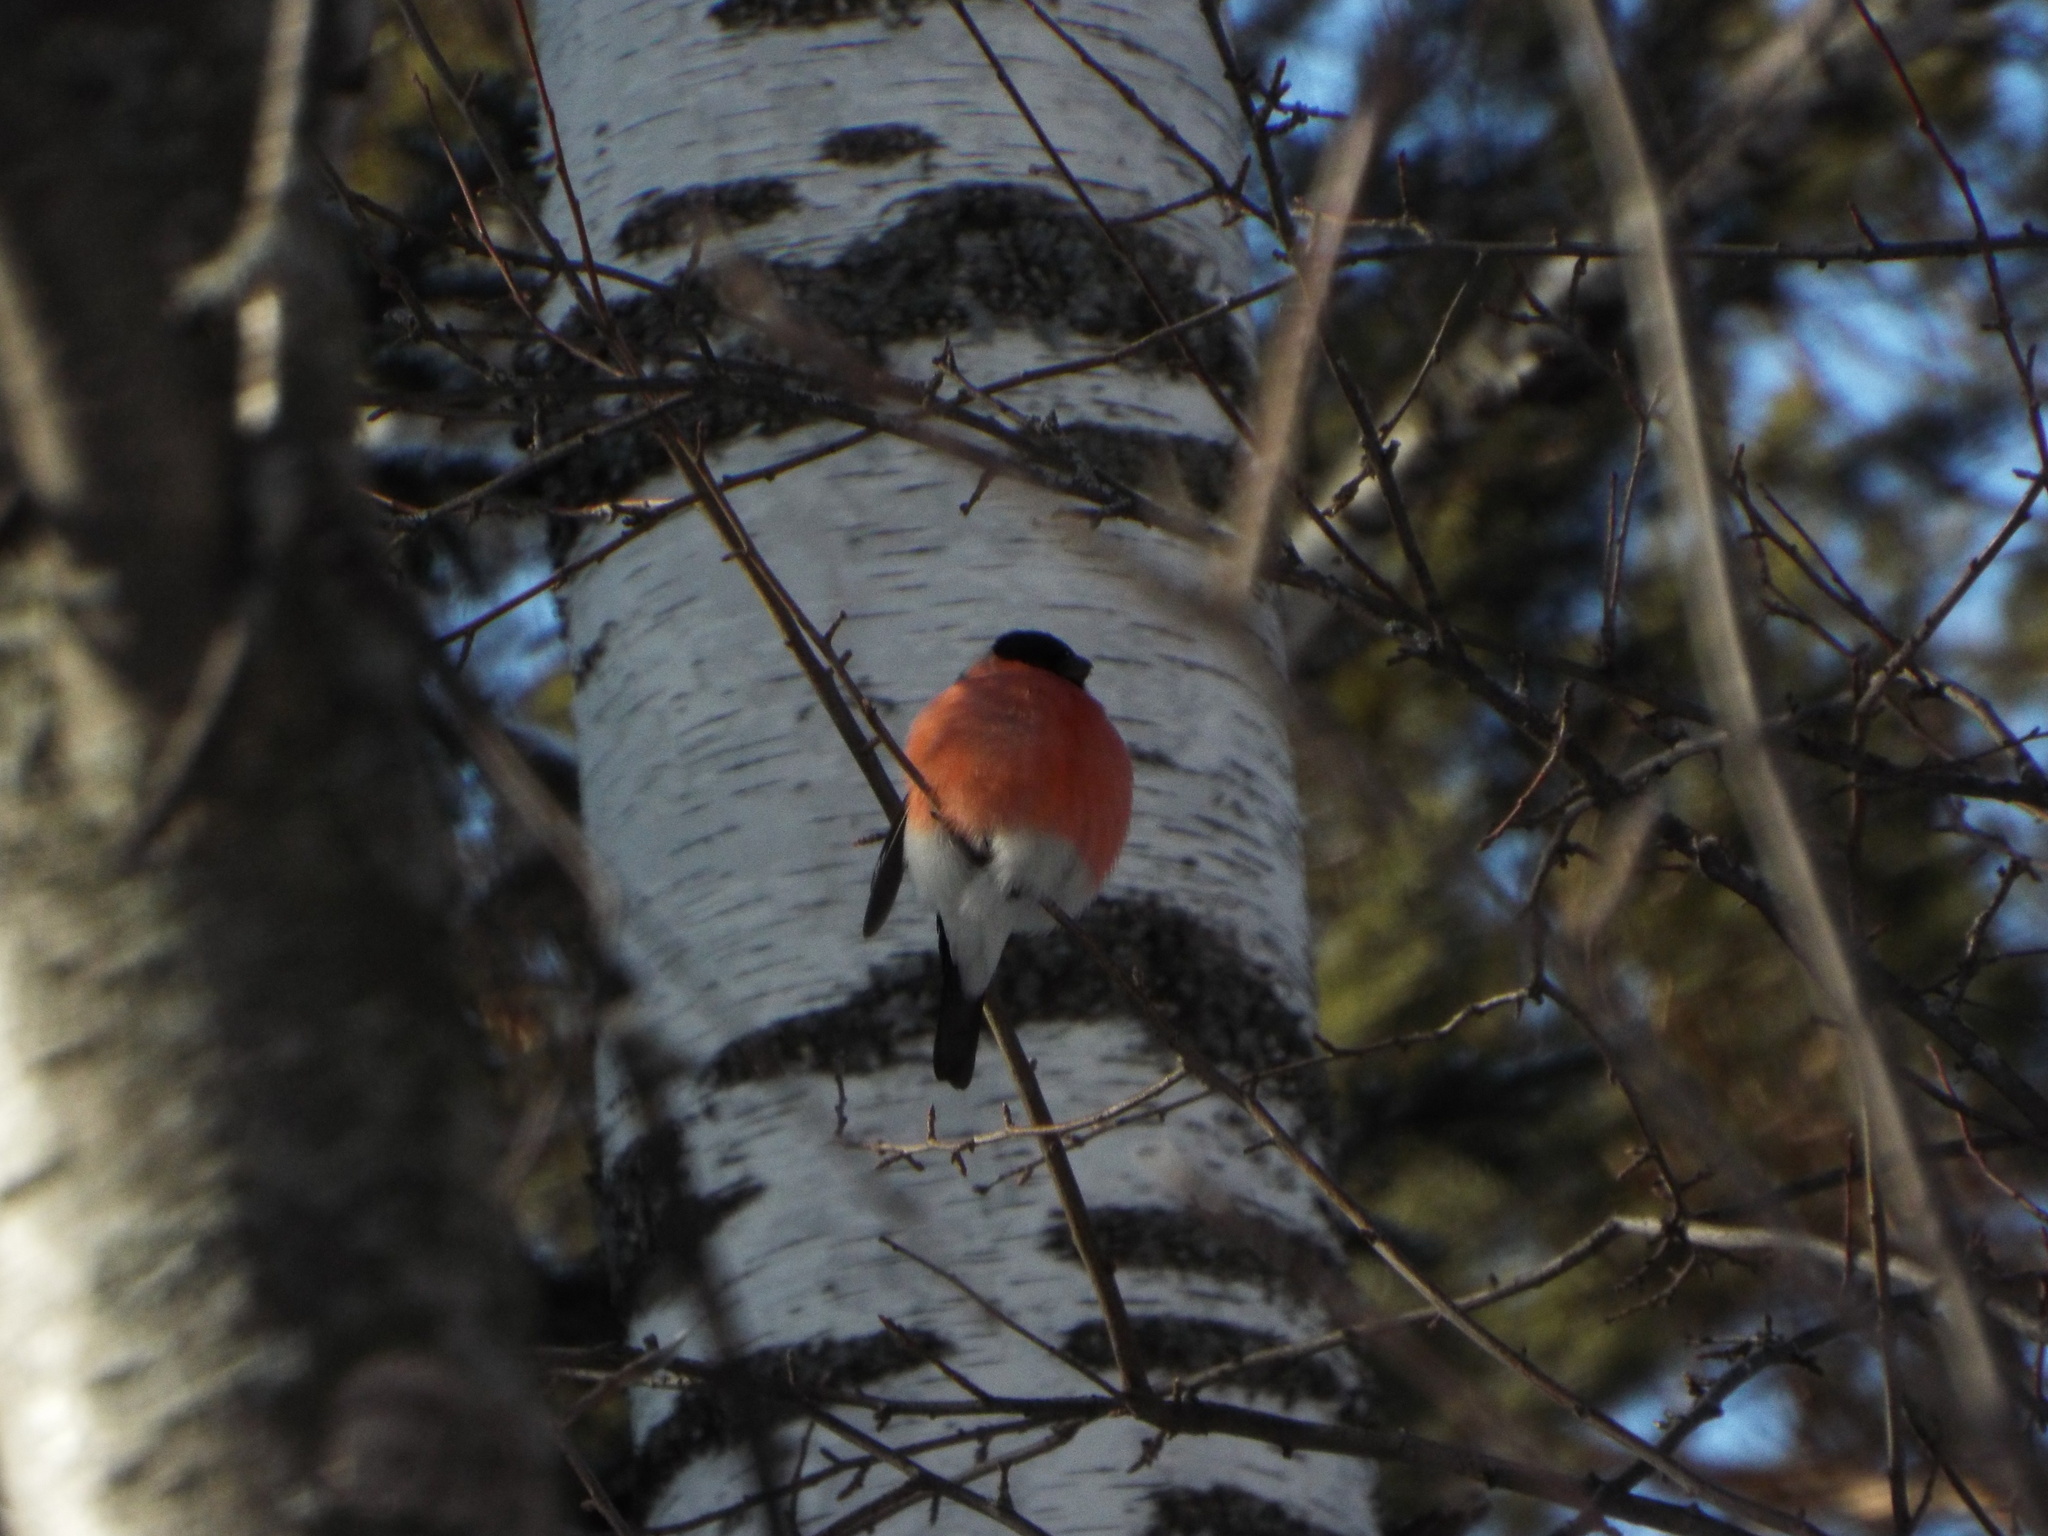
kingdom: Animalia
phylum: Chordata
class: Aves
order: Passeriformes
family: Fringillidae
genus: Pyrrhula
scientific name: Pyrrhula pyrrhula
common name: Eurasian bullfinch
